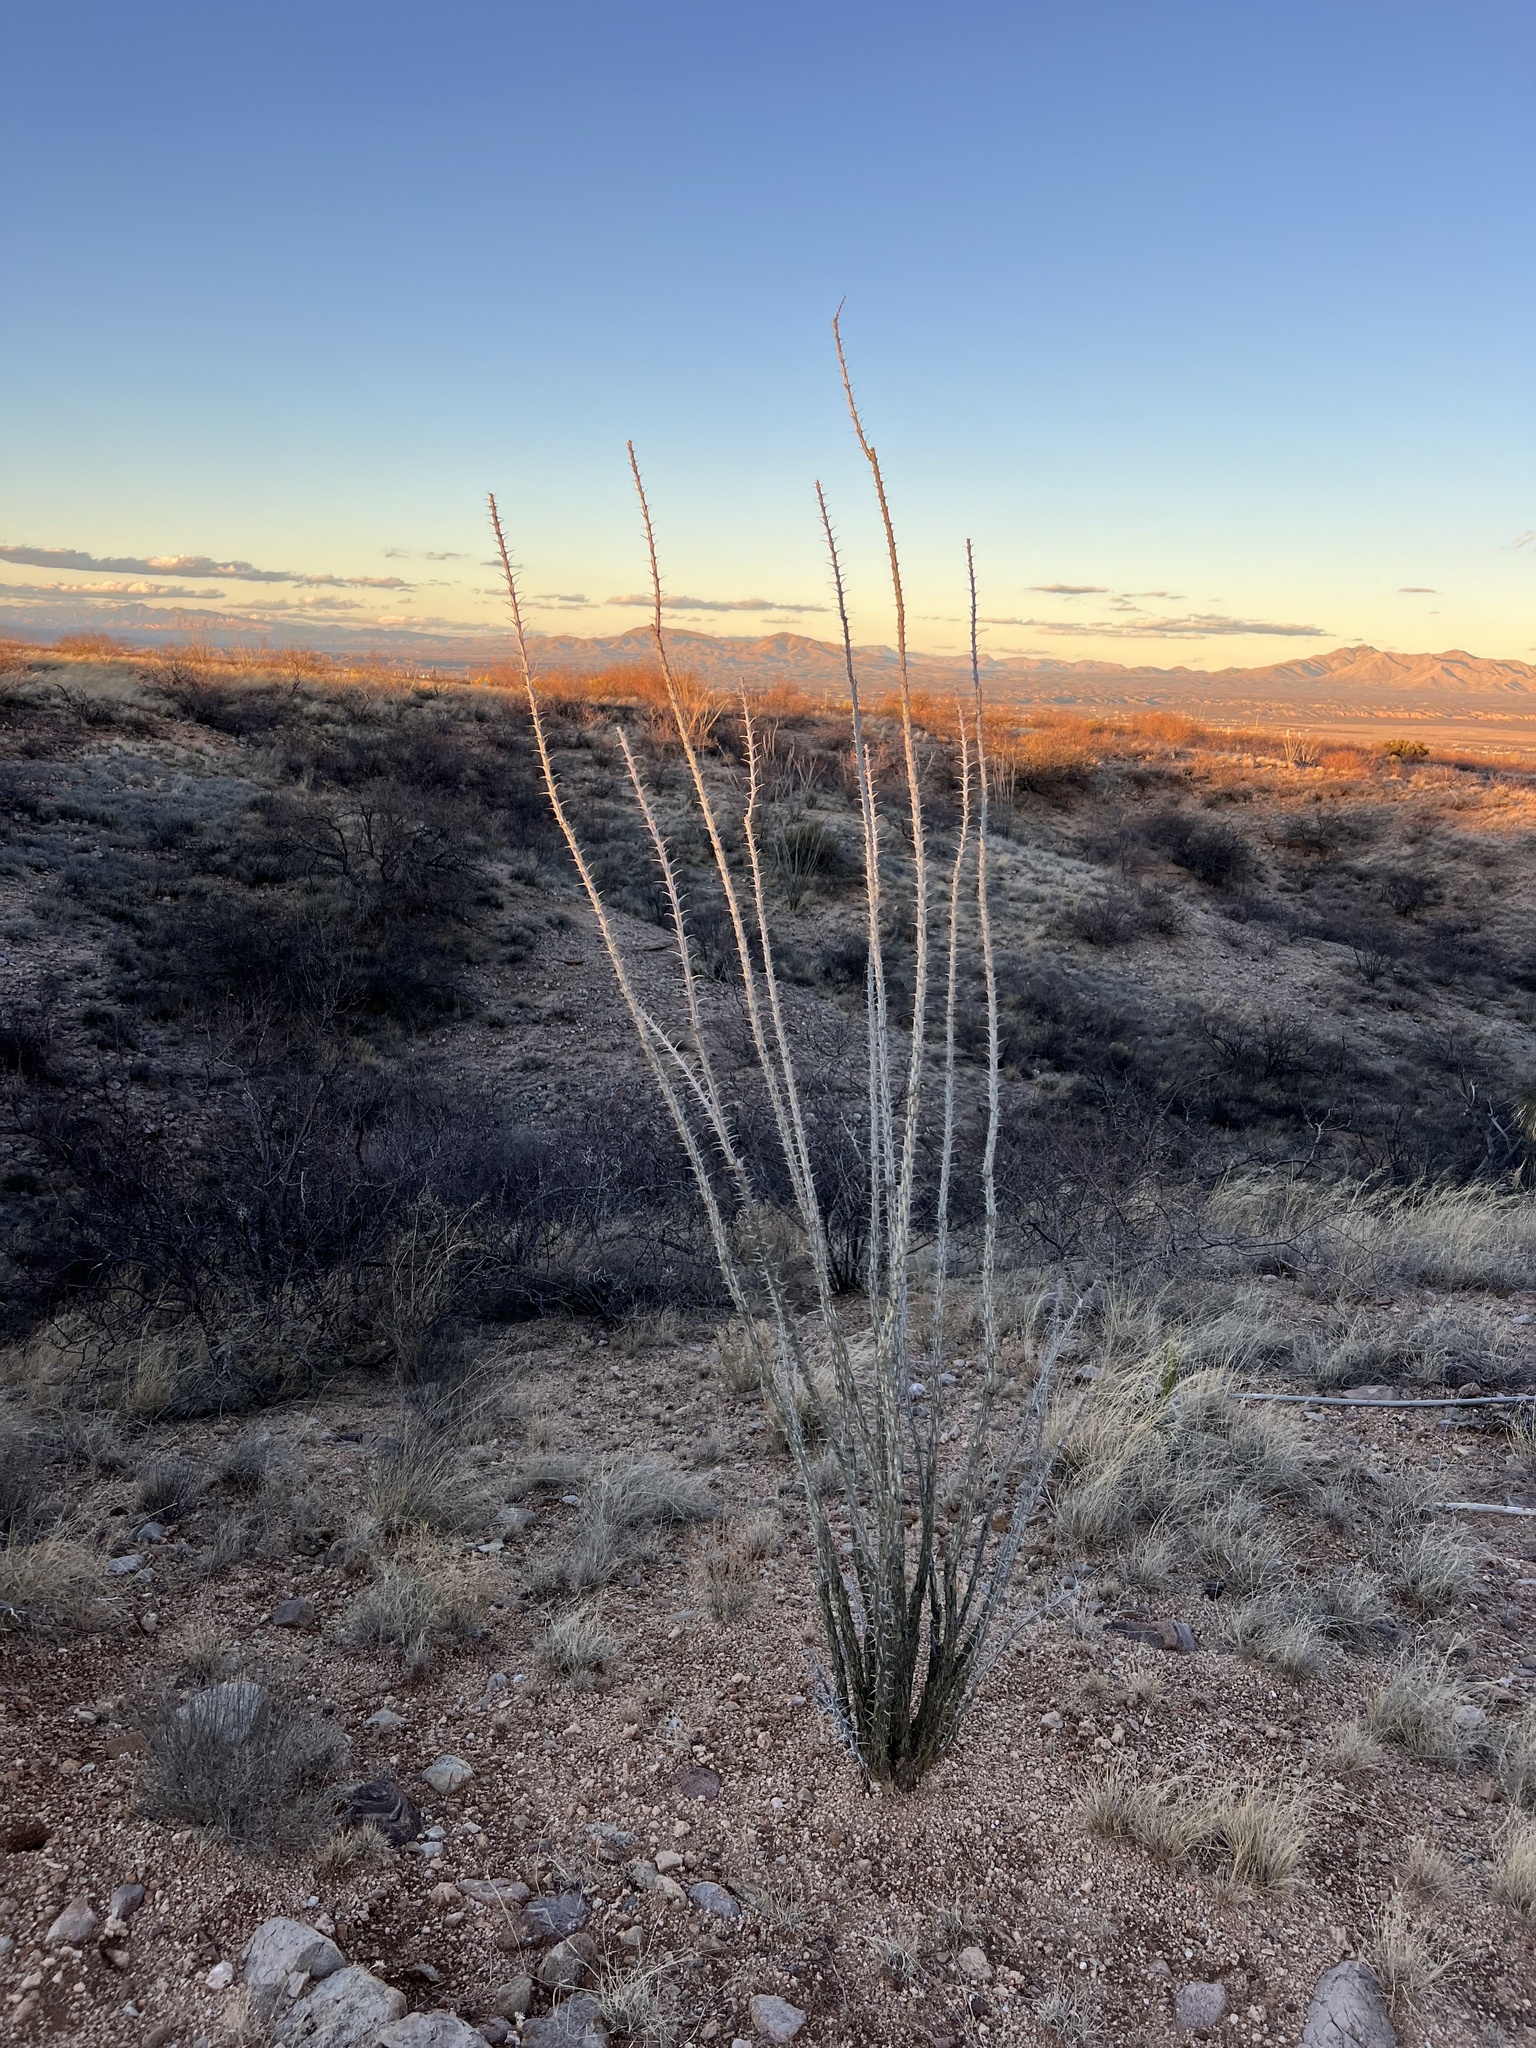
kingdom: Plantae
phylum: Tracheophyta
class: Magnoliopsida
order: Ericales
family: Fouquieriaceae
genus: Fouquieria
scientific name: Fouquieria splendens
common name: Vine-cactus
